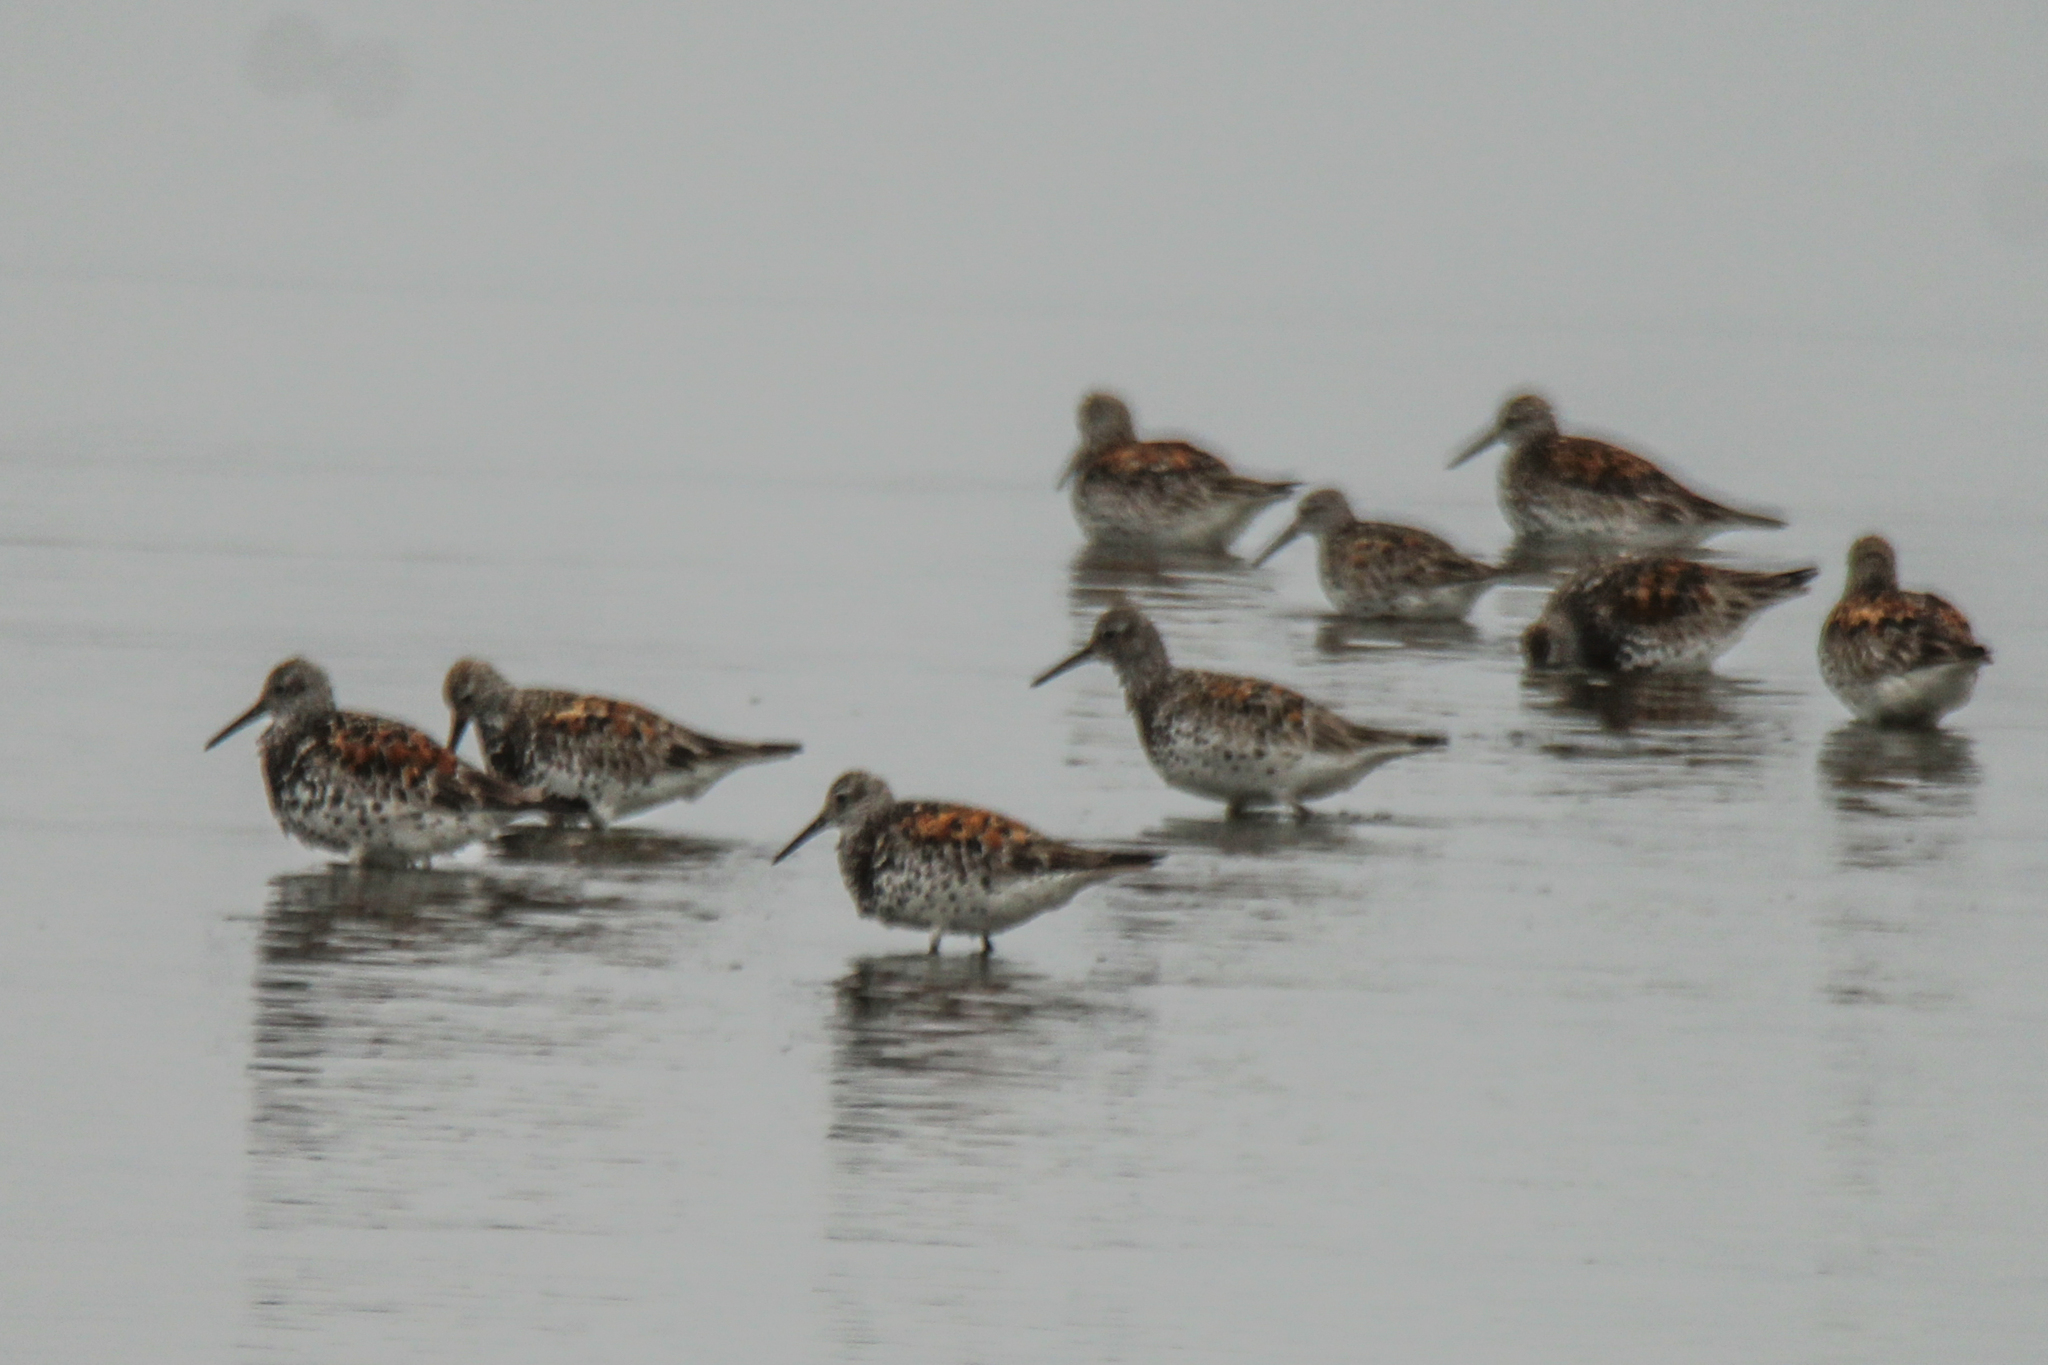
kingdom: Animalia
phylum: Chordata
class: Aves
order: Charadriiformes
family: Scolopacidae
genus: Calidris
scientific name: Calidris tenuirostris
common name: Great knot
